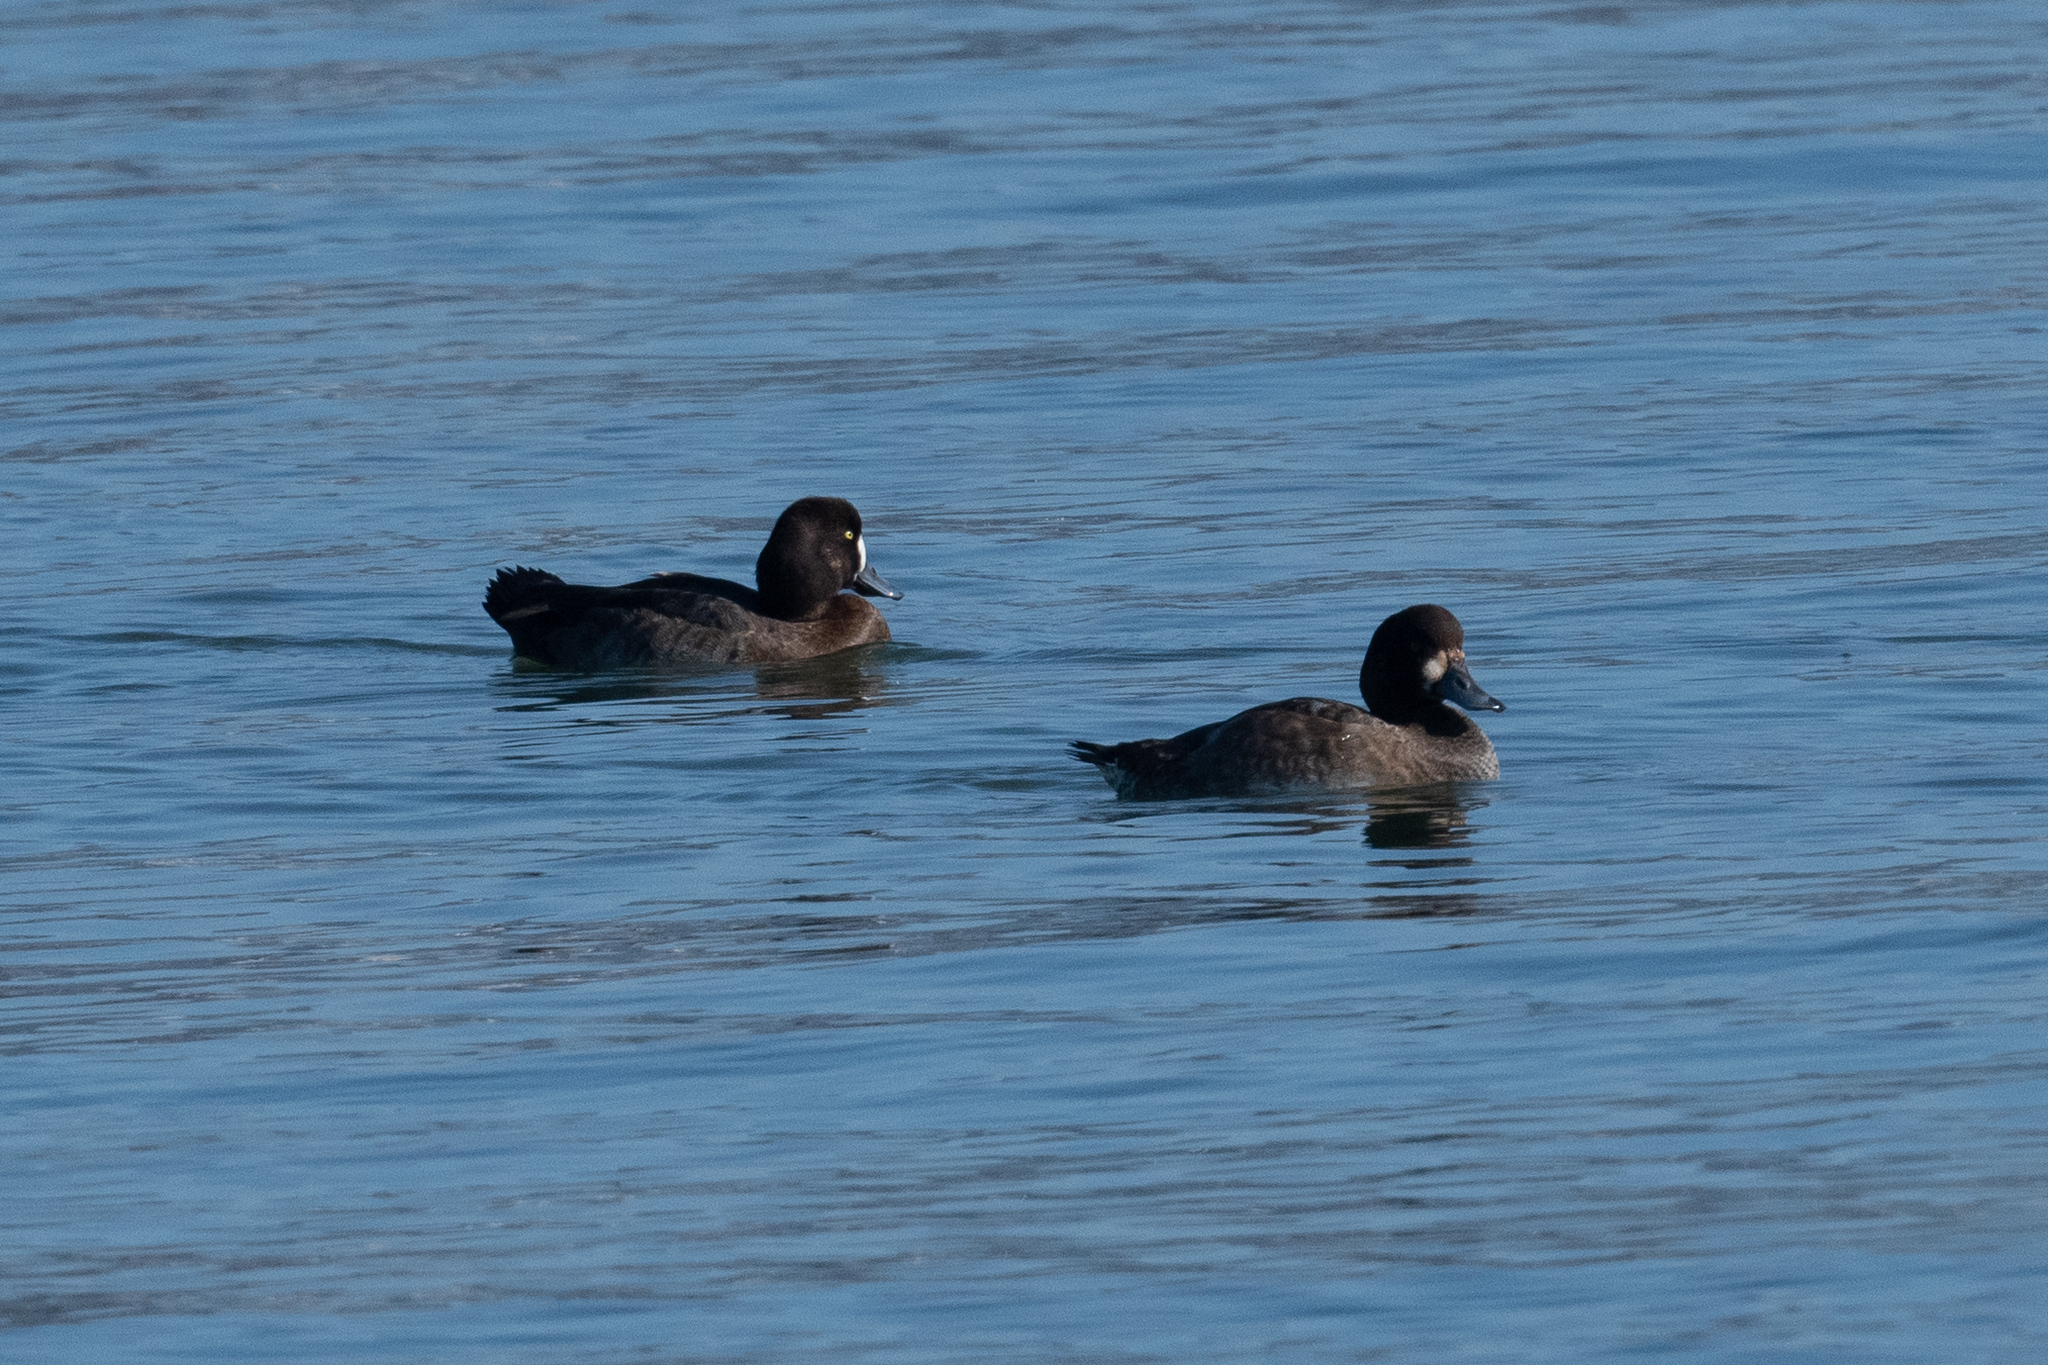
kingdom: Animalia
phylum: Chordata
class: Aves
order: Anseriformes
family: Anatidae
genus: Aythya
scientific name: Aythya marila
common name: Greater scaup
